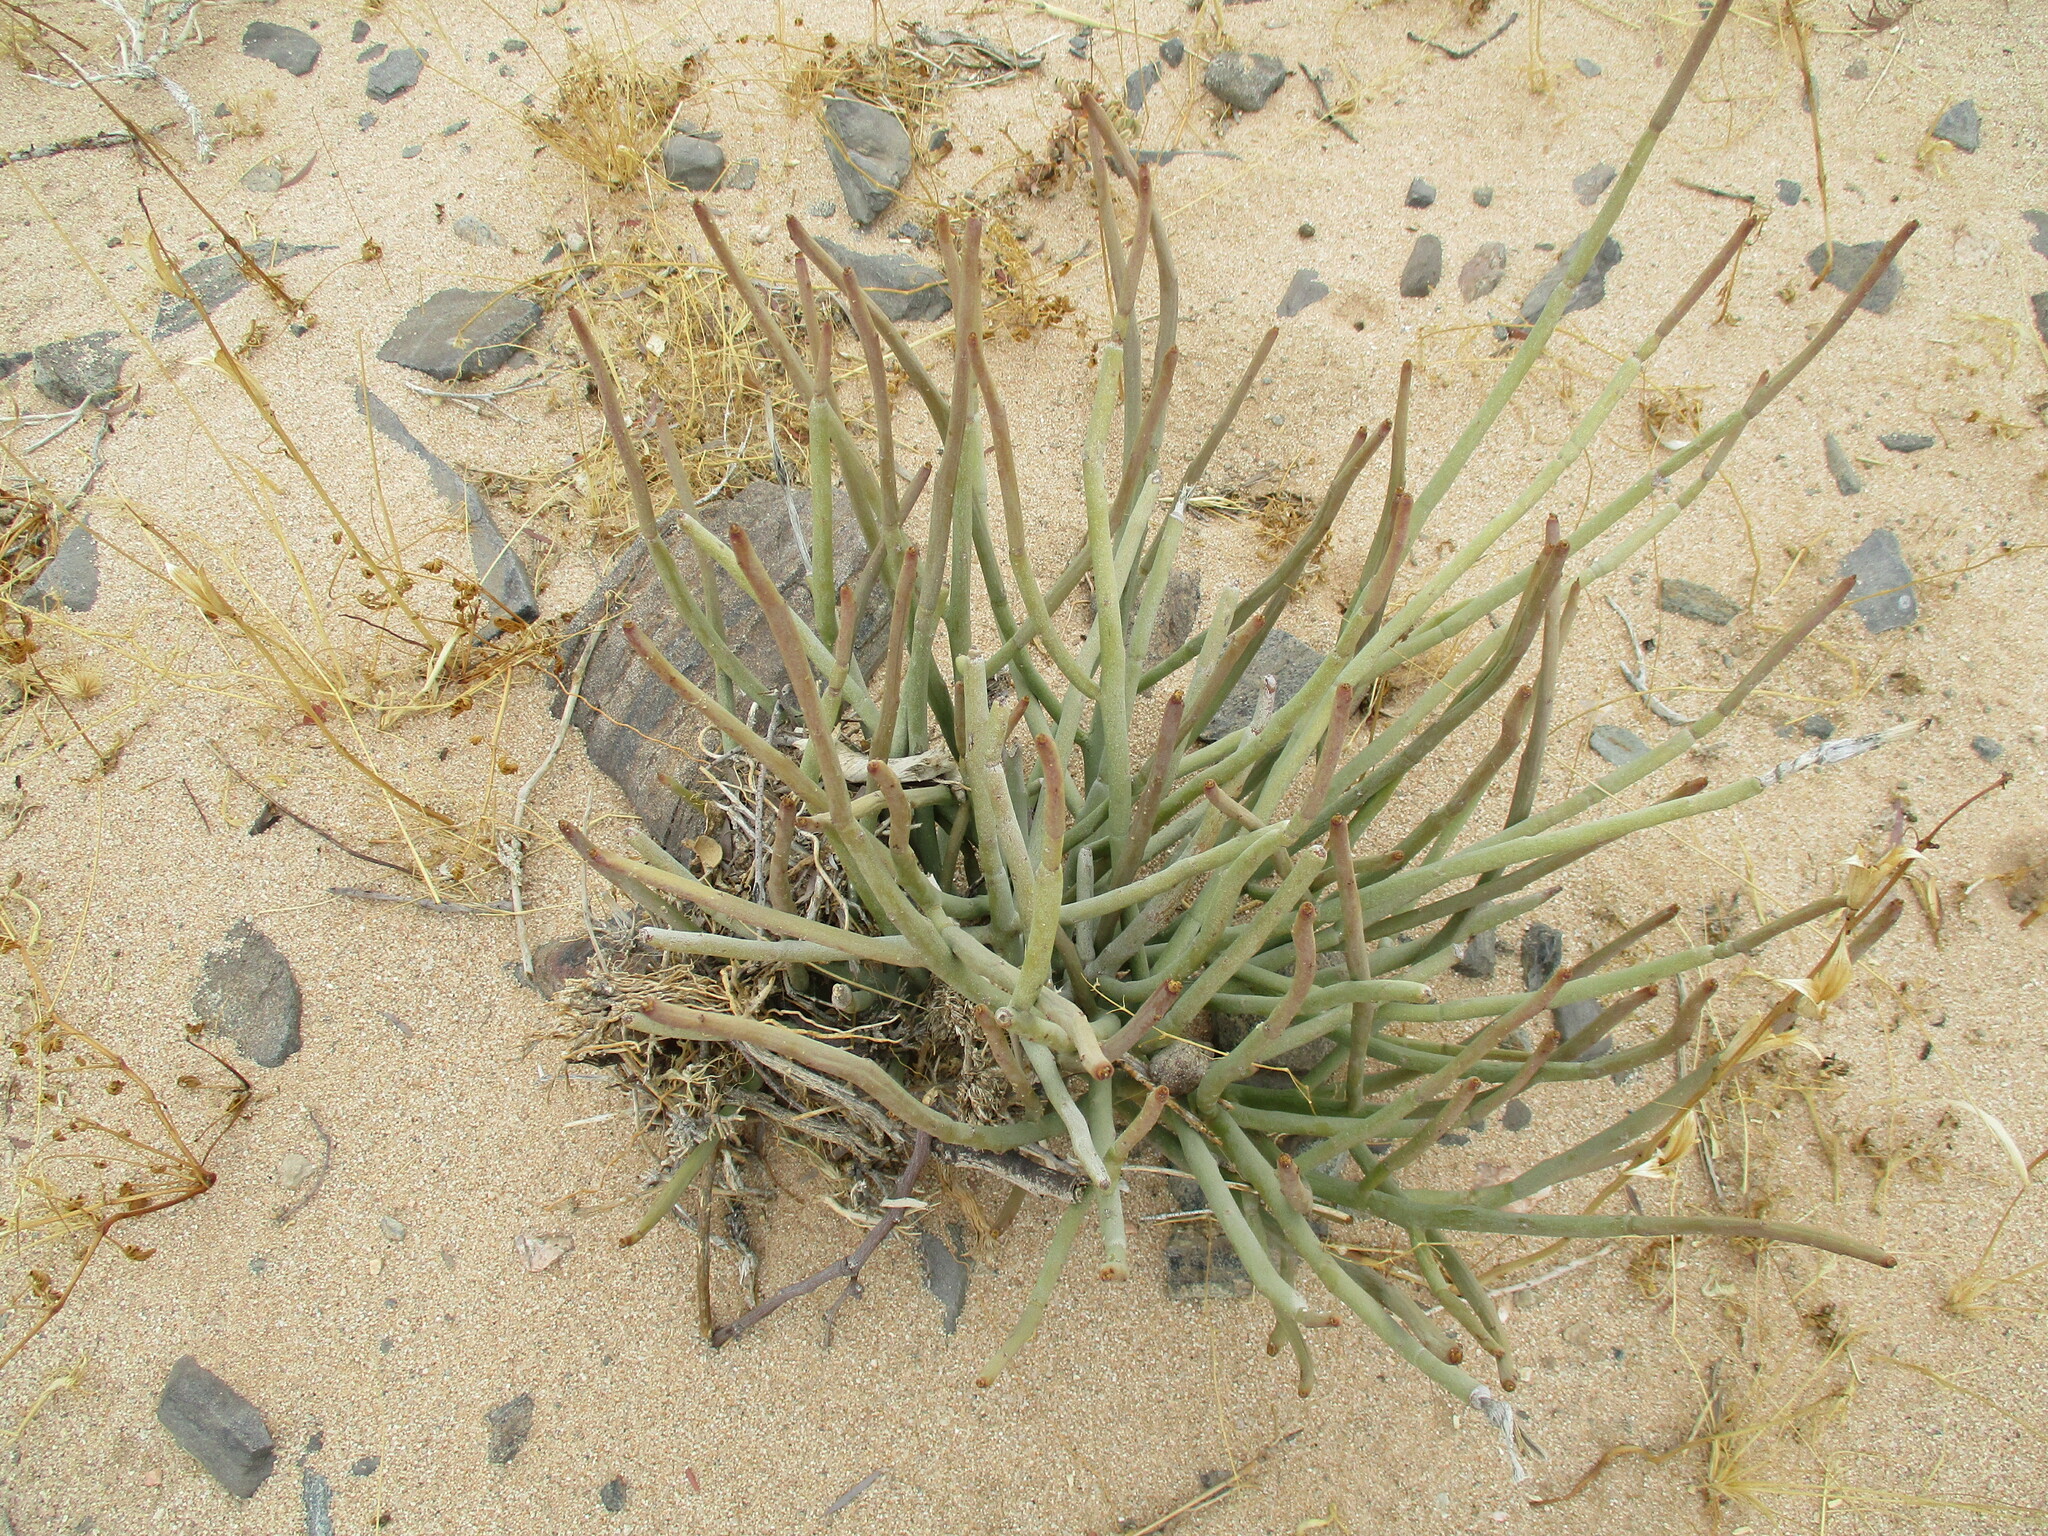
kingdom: Plantae
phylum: Tracheophyta
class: Magnoliopsida
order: Malpighiales
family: Euphorbiaceae
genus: Euphorbia
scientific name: Euphorbia damarana
